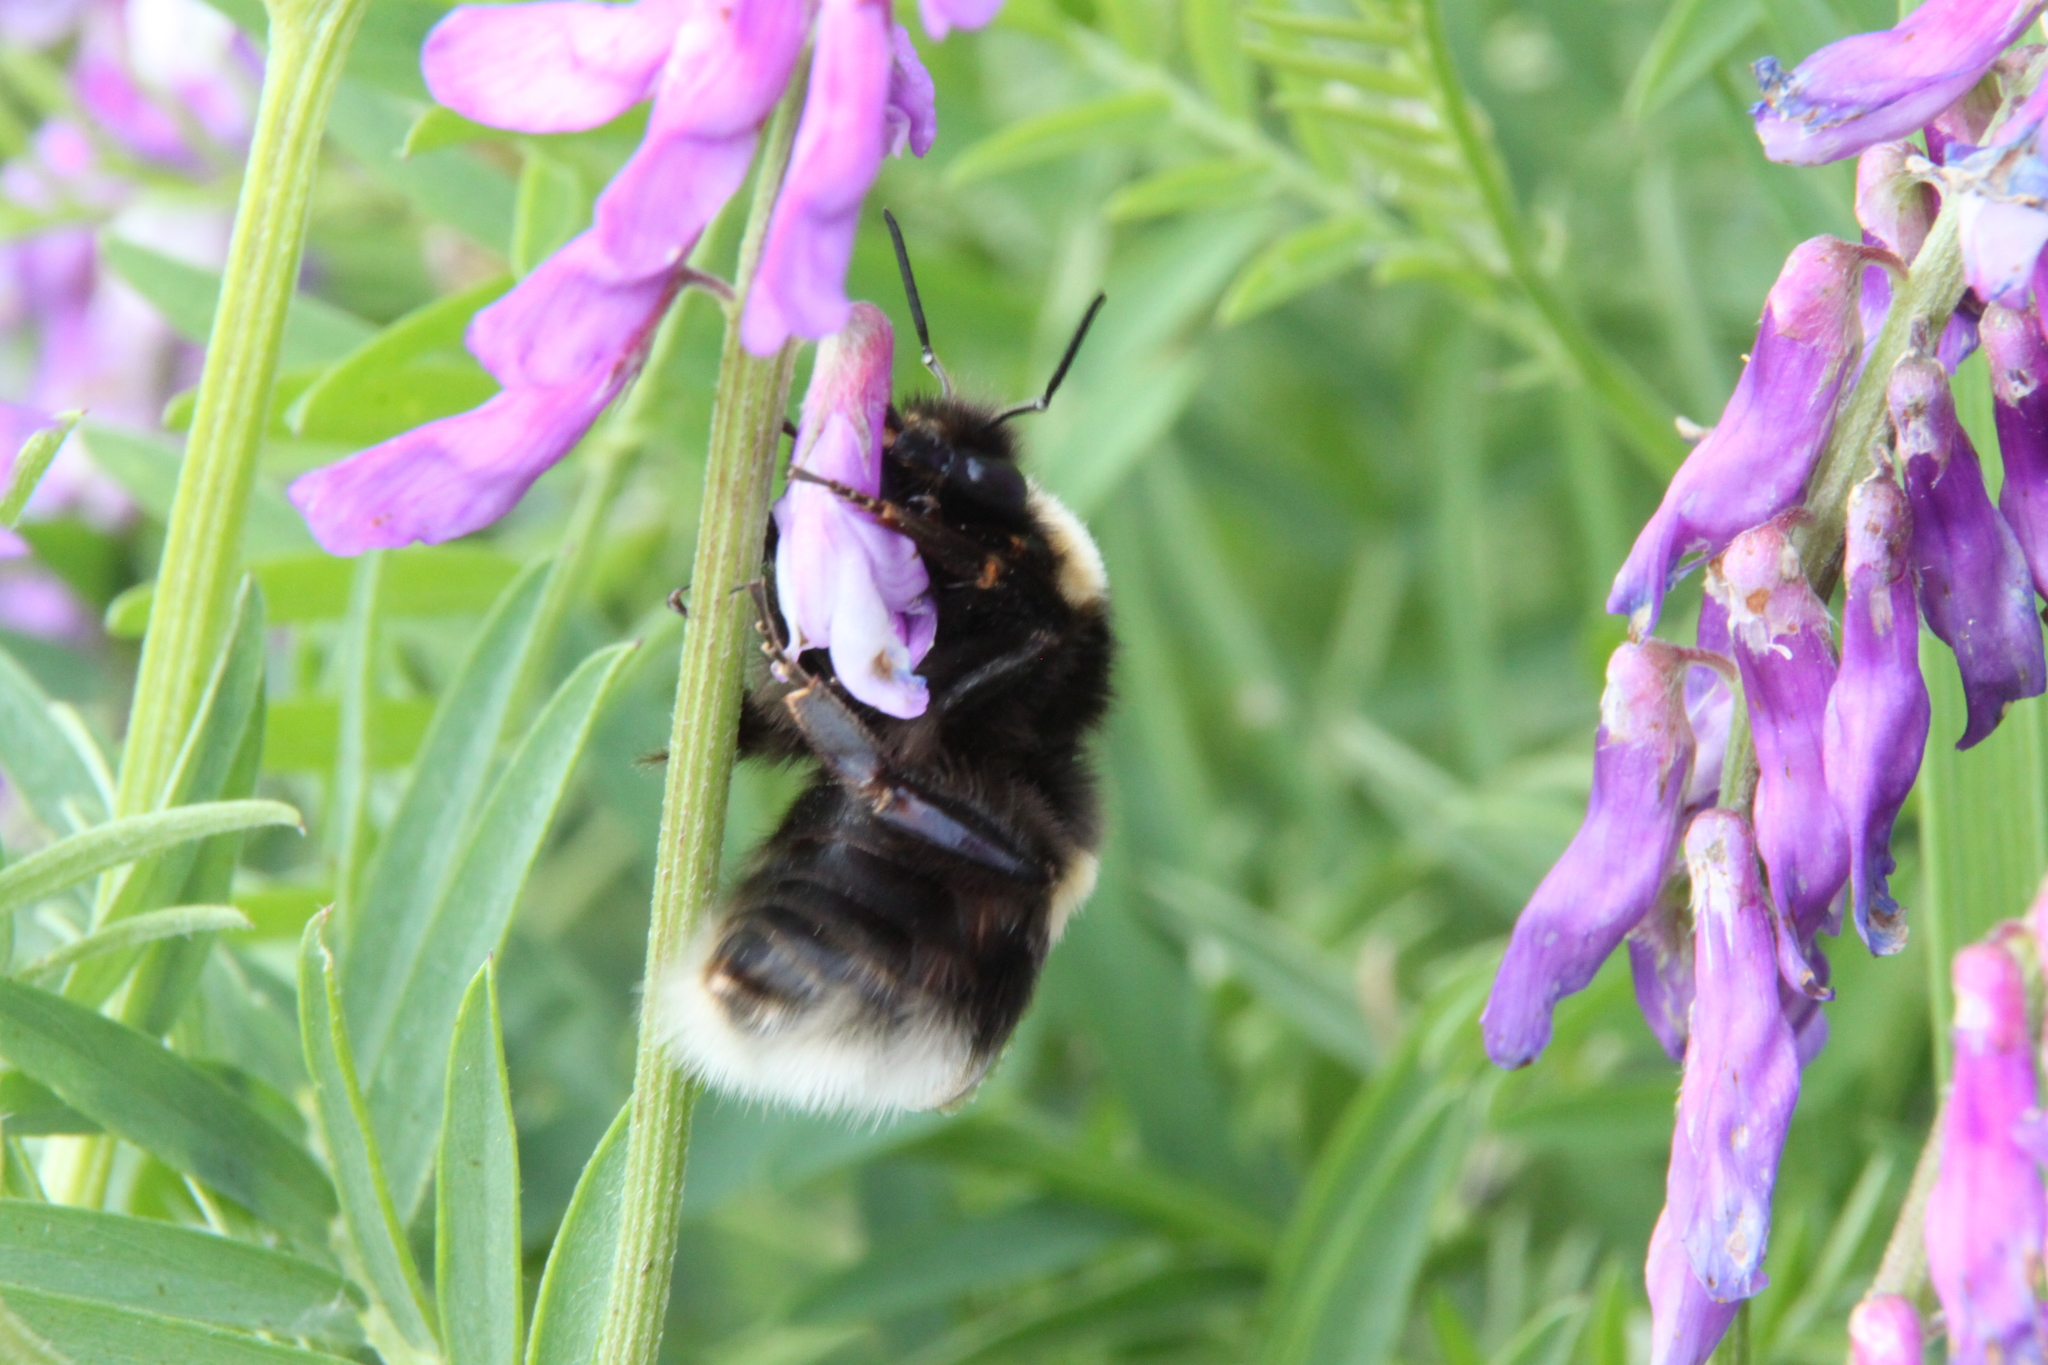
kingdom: Animalia
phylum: Arthropoda
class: Insecta
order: Hymenoptera
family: Apidae
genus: Bombus
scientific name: Bombus subterraneus
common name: Short-haired humble-bee
